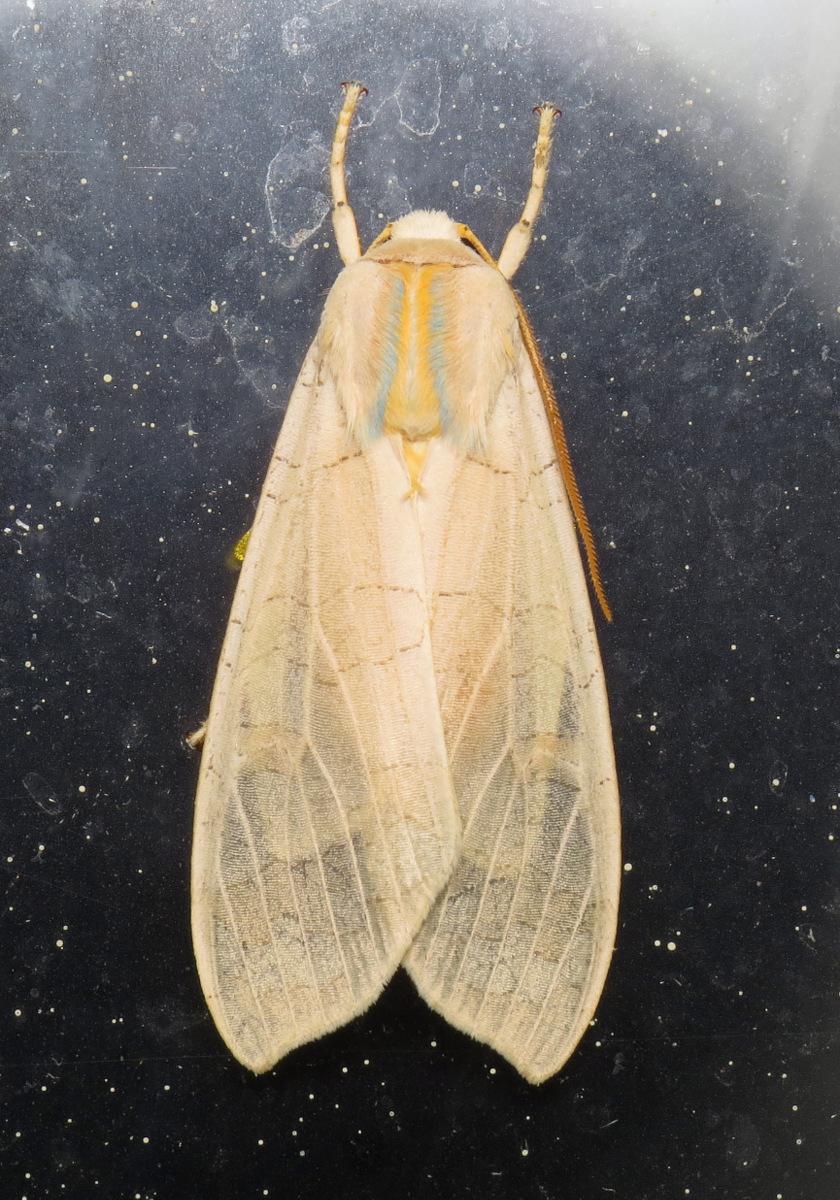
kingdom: Animalia
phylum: Arthropoda
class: Insecta
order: Lepidoptera
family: Erebidae
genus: Halysidota
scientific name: Halysidota
